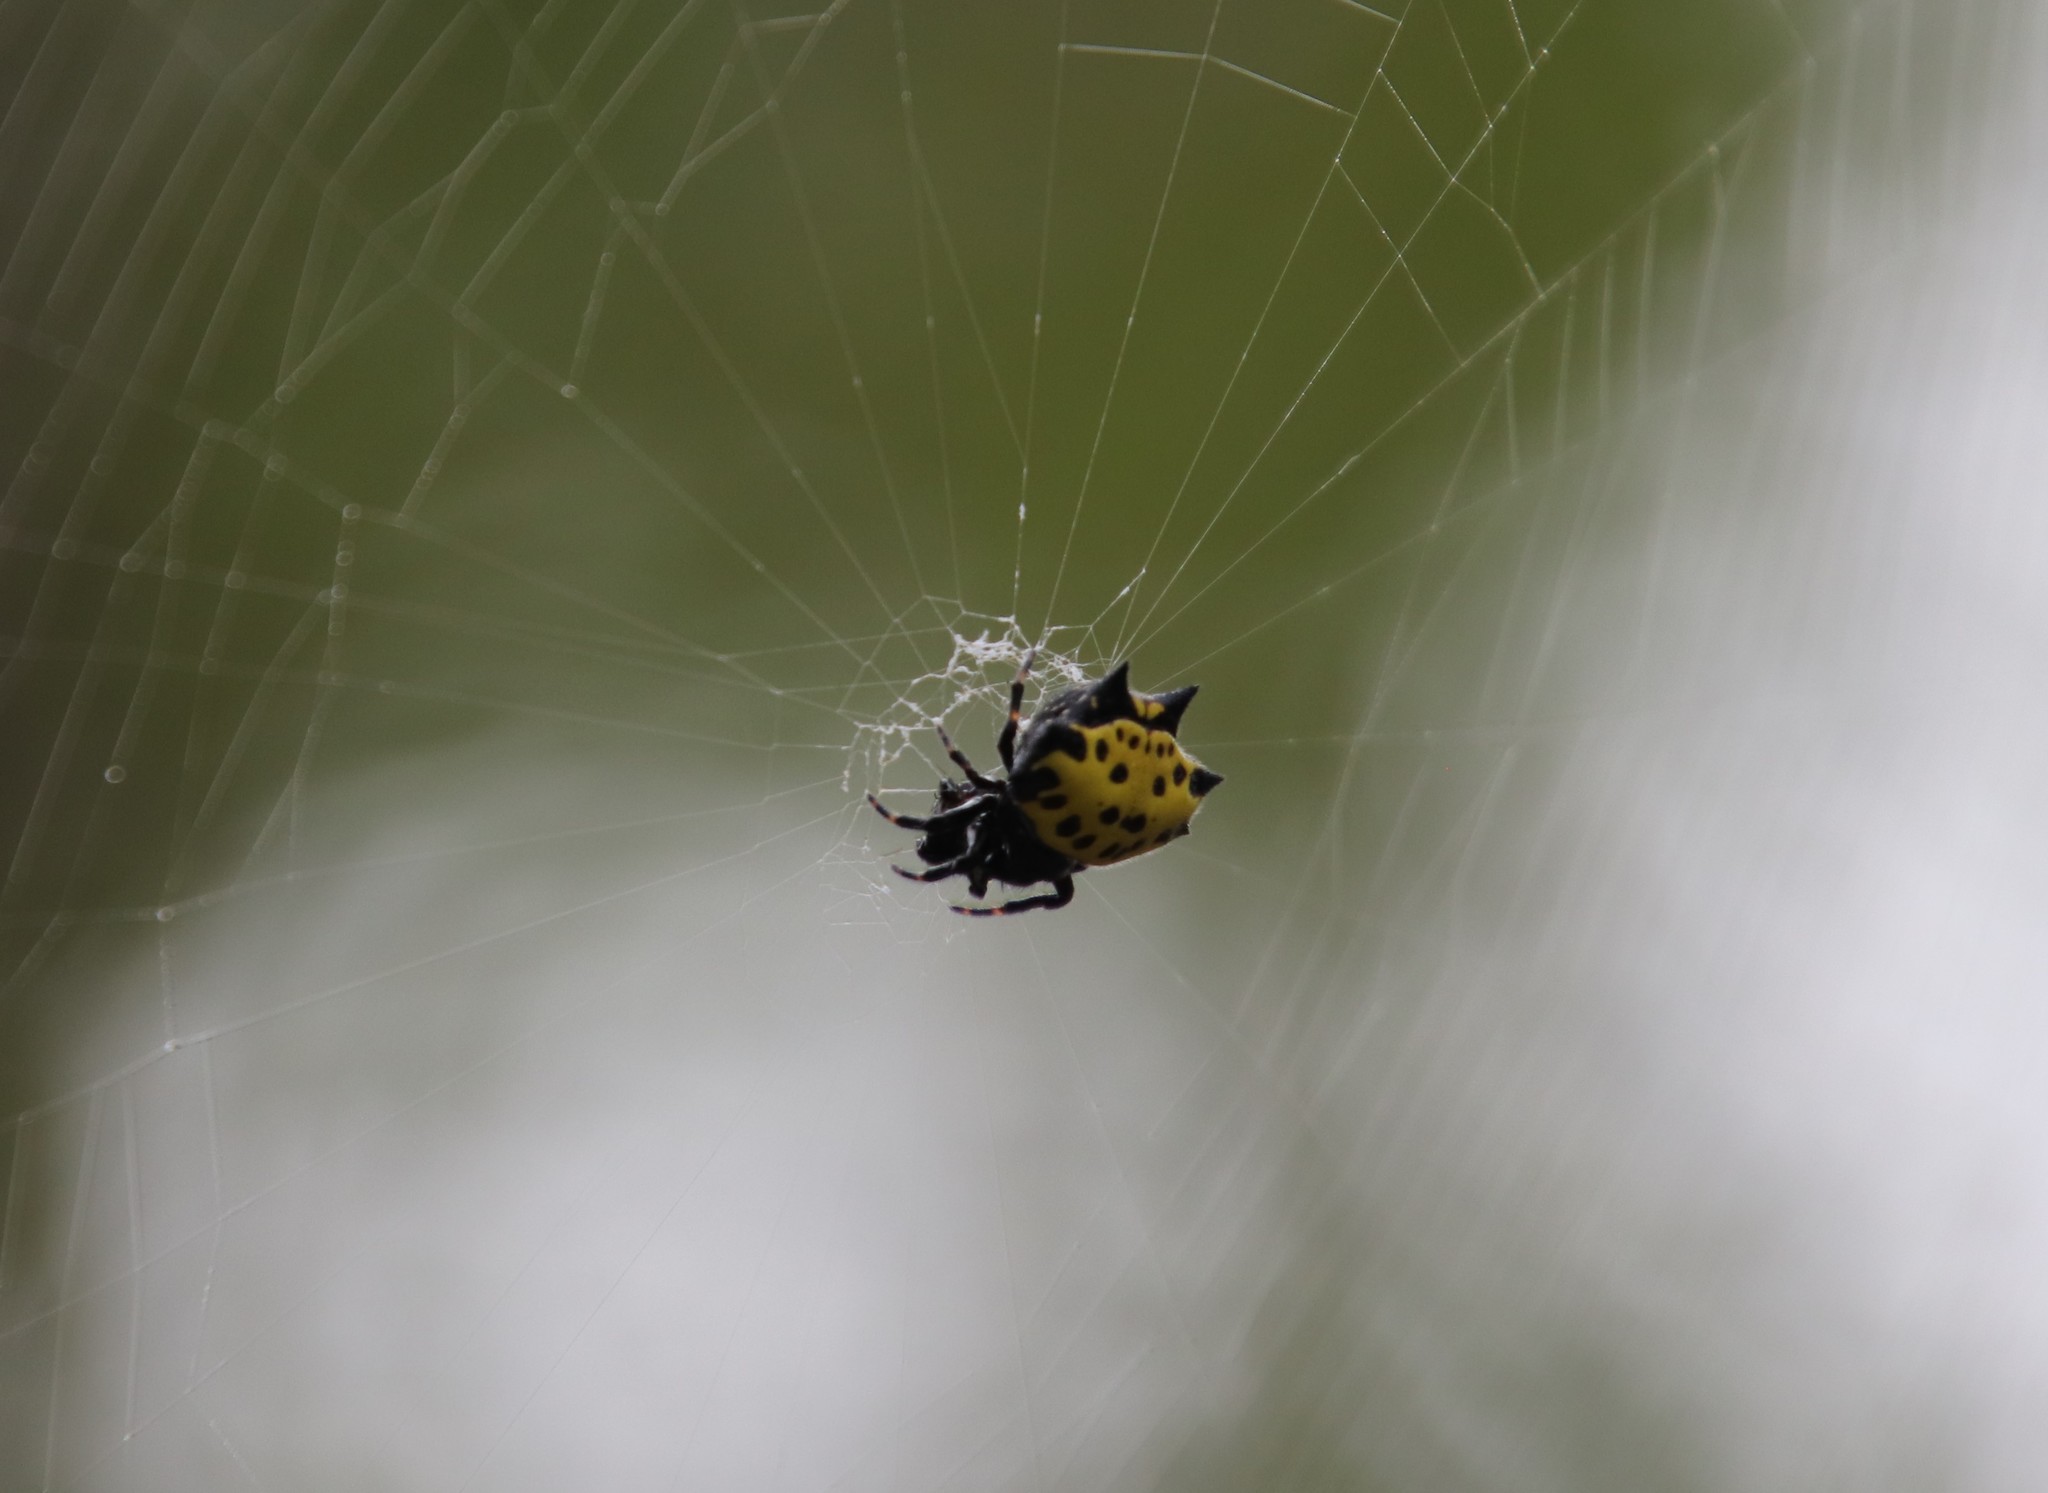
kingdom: Animalia
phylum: Arthropoda
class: Arachnida
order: Araneae
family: Araneidae
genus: Gasteracantha
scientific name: Gasteracantha cancriformis
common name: Orb weavers
